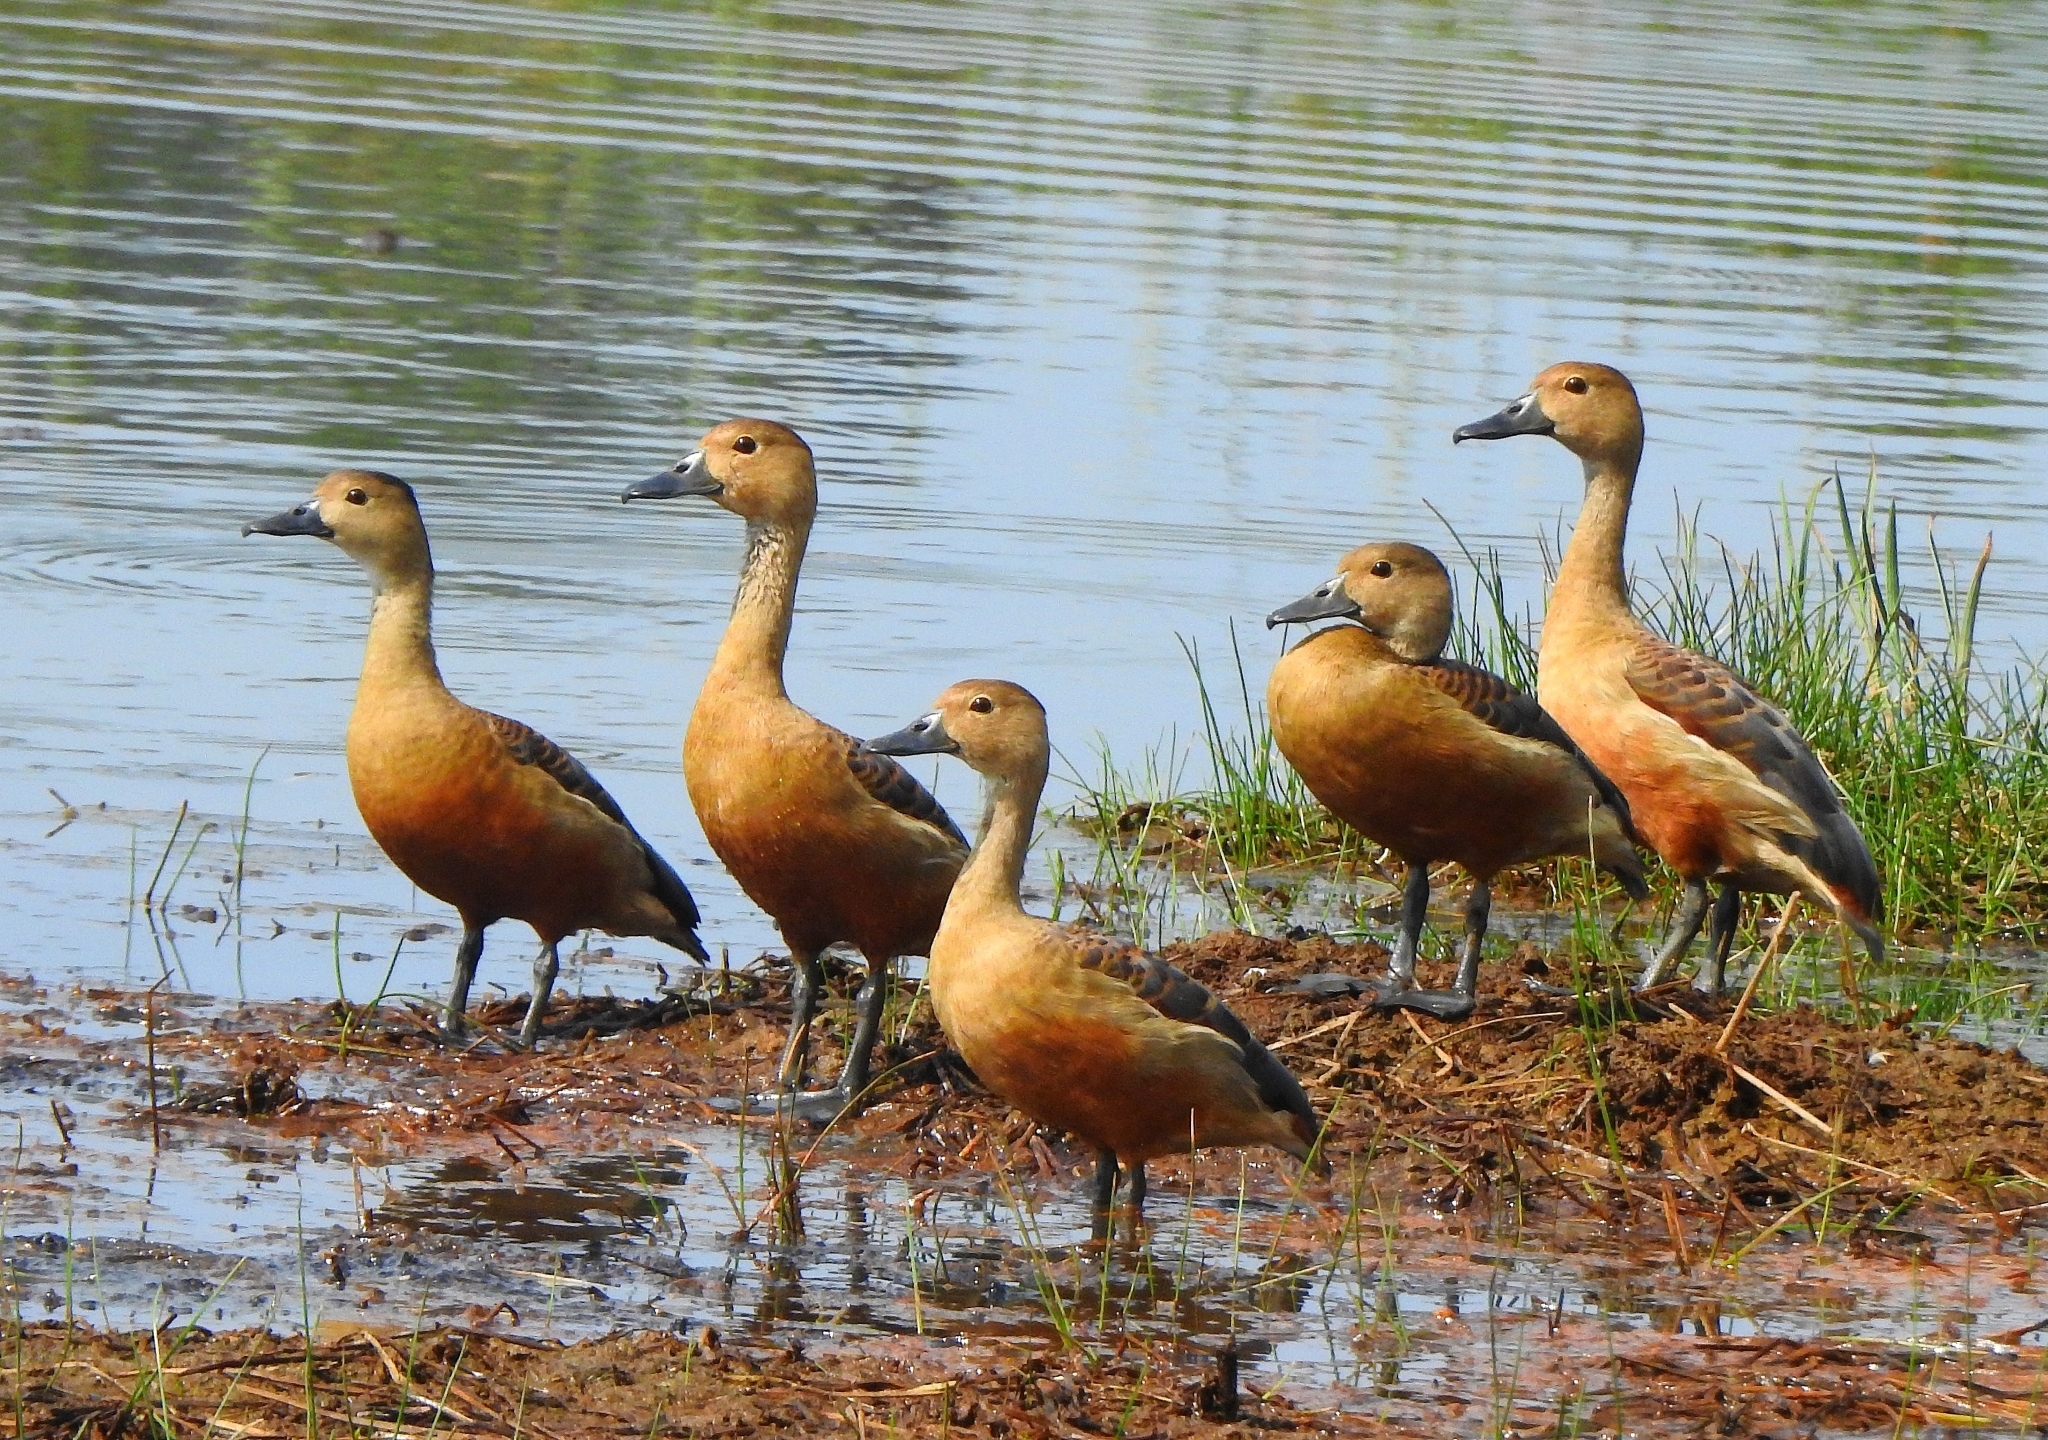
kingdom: Animalia
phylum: Chordata
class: Aves
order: Anseriformes
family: Anatidae
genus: Dendrocygna
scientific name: Dendrocygna javanica
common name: Lesser whistling-duck
